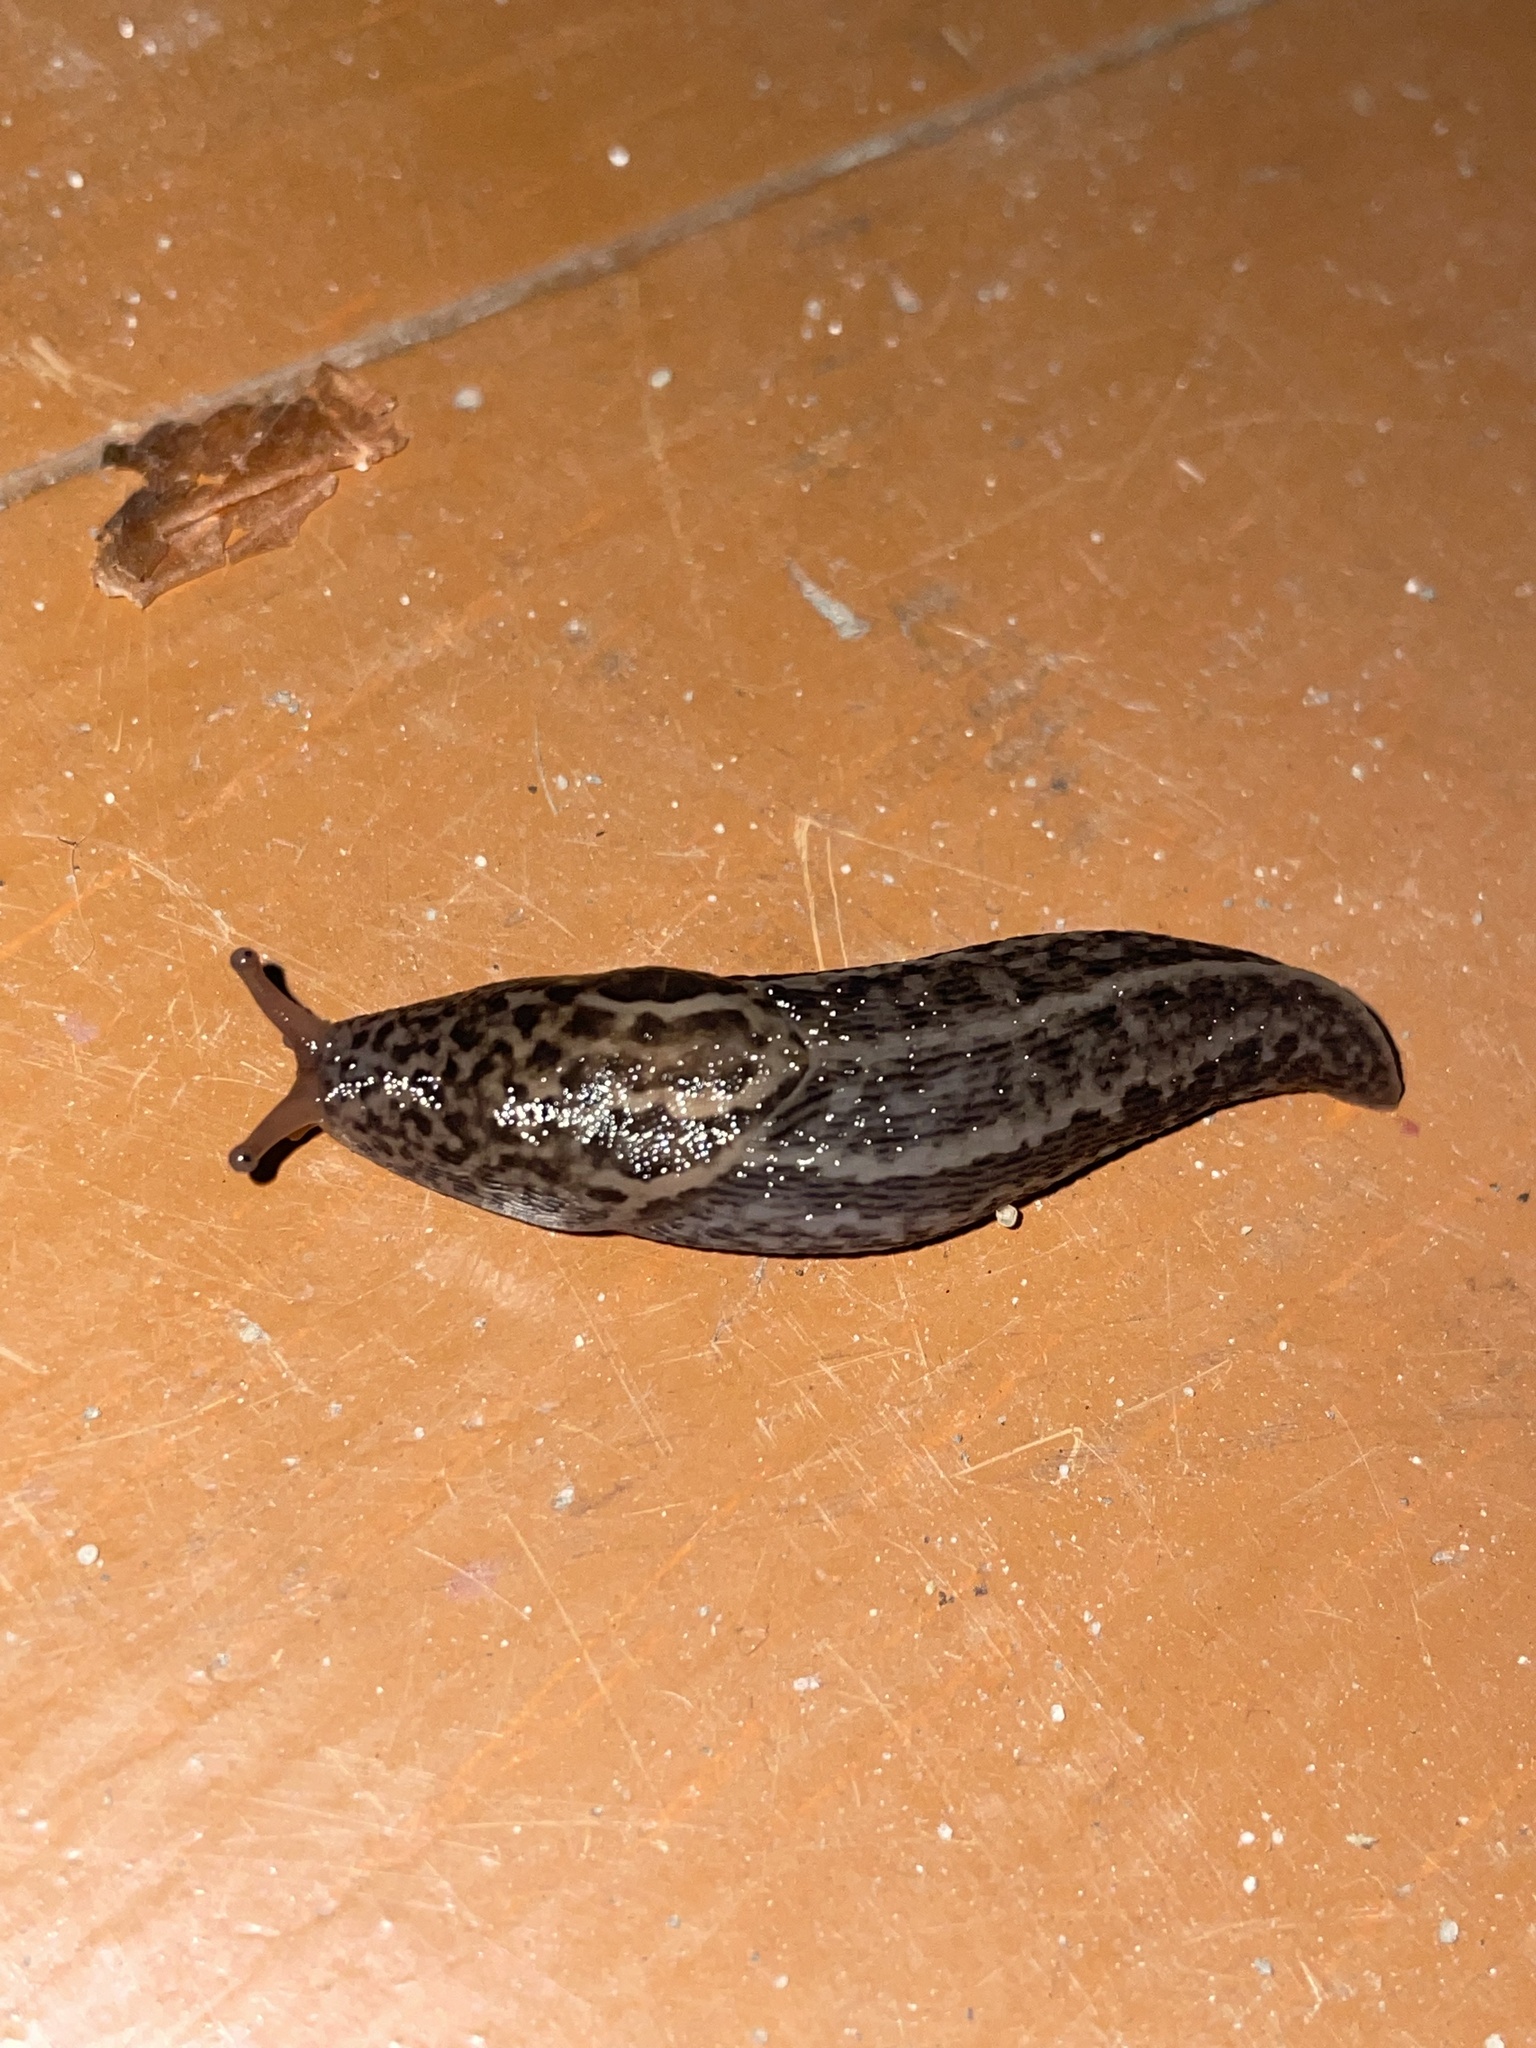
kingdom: Animalia
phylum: Mollusca
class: Gastropoda
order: Stylommatophora
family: Limacidae
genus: Limax
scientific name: Limax maximus
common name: Great grey slug
